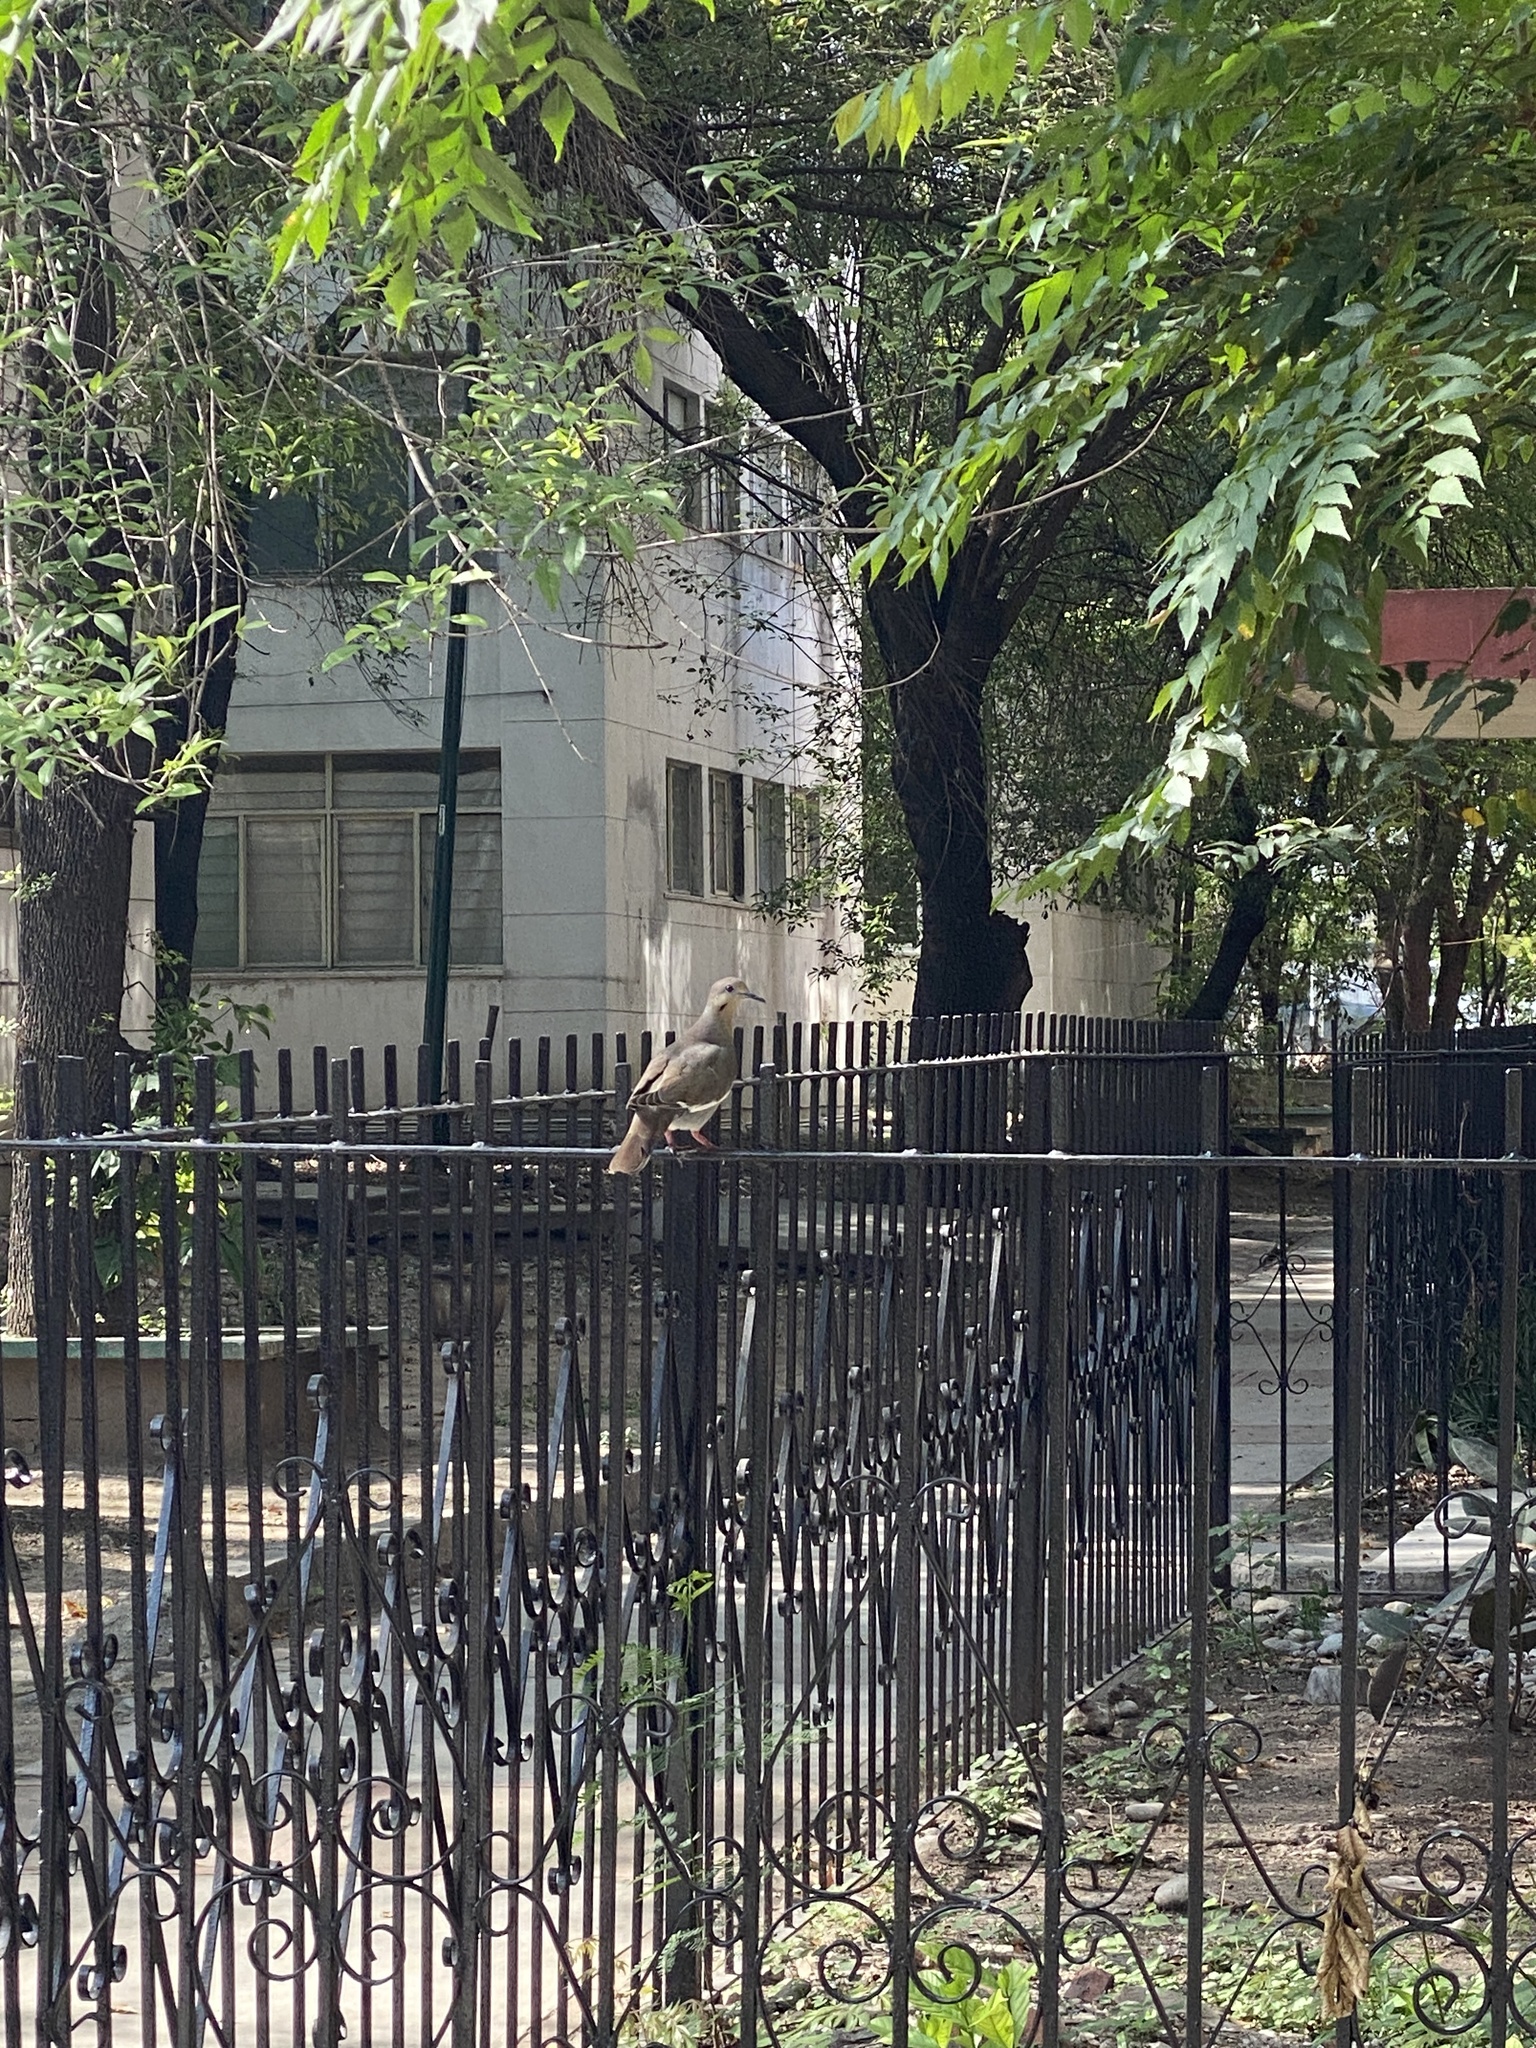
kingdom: Animalia
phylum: Chordata
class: Aves
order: Columbiformes
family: Columbidae
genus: Zenaida
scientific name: Zenaida asiatica
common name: White-winged dove
